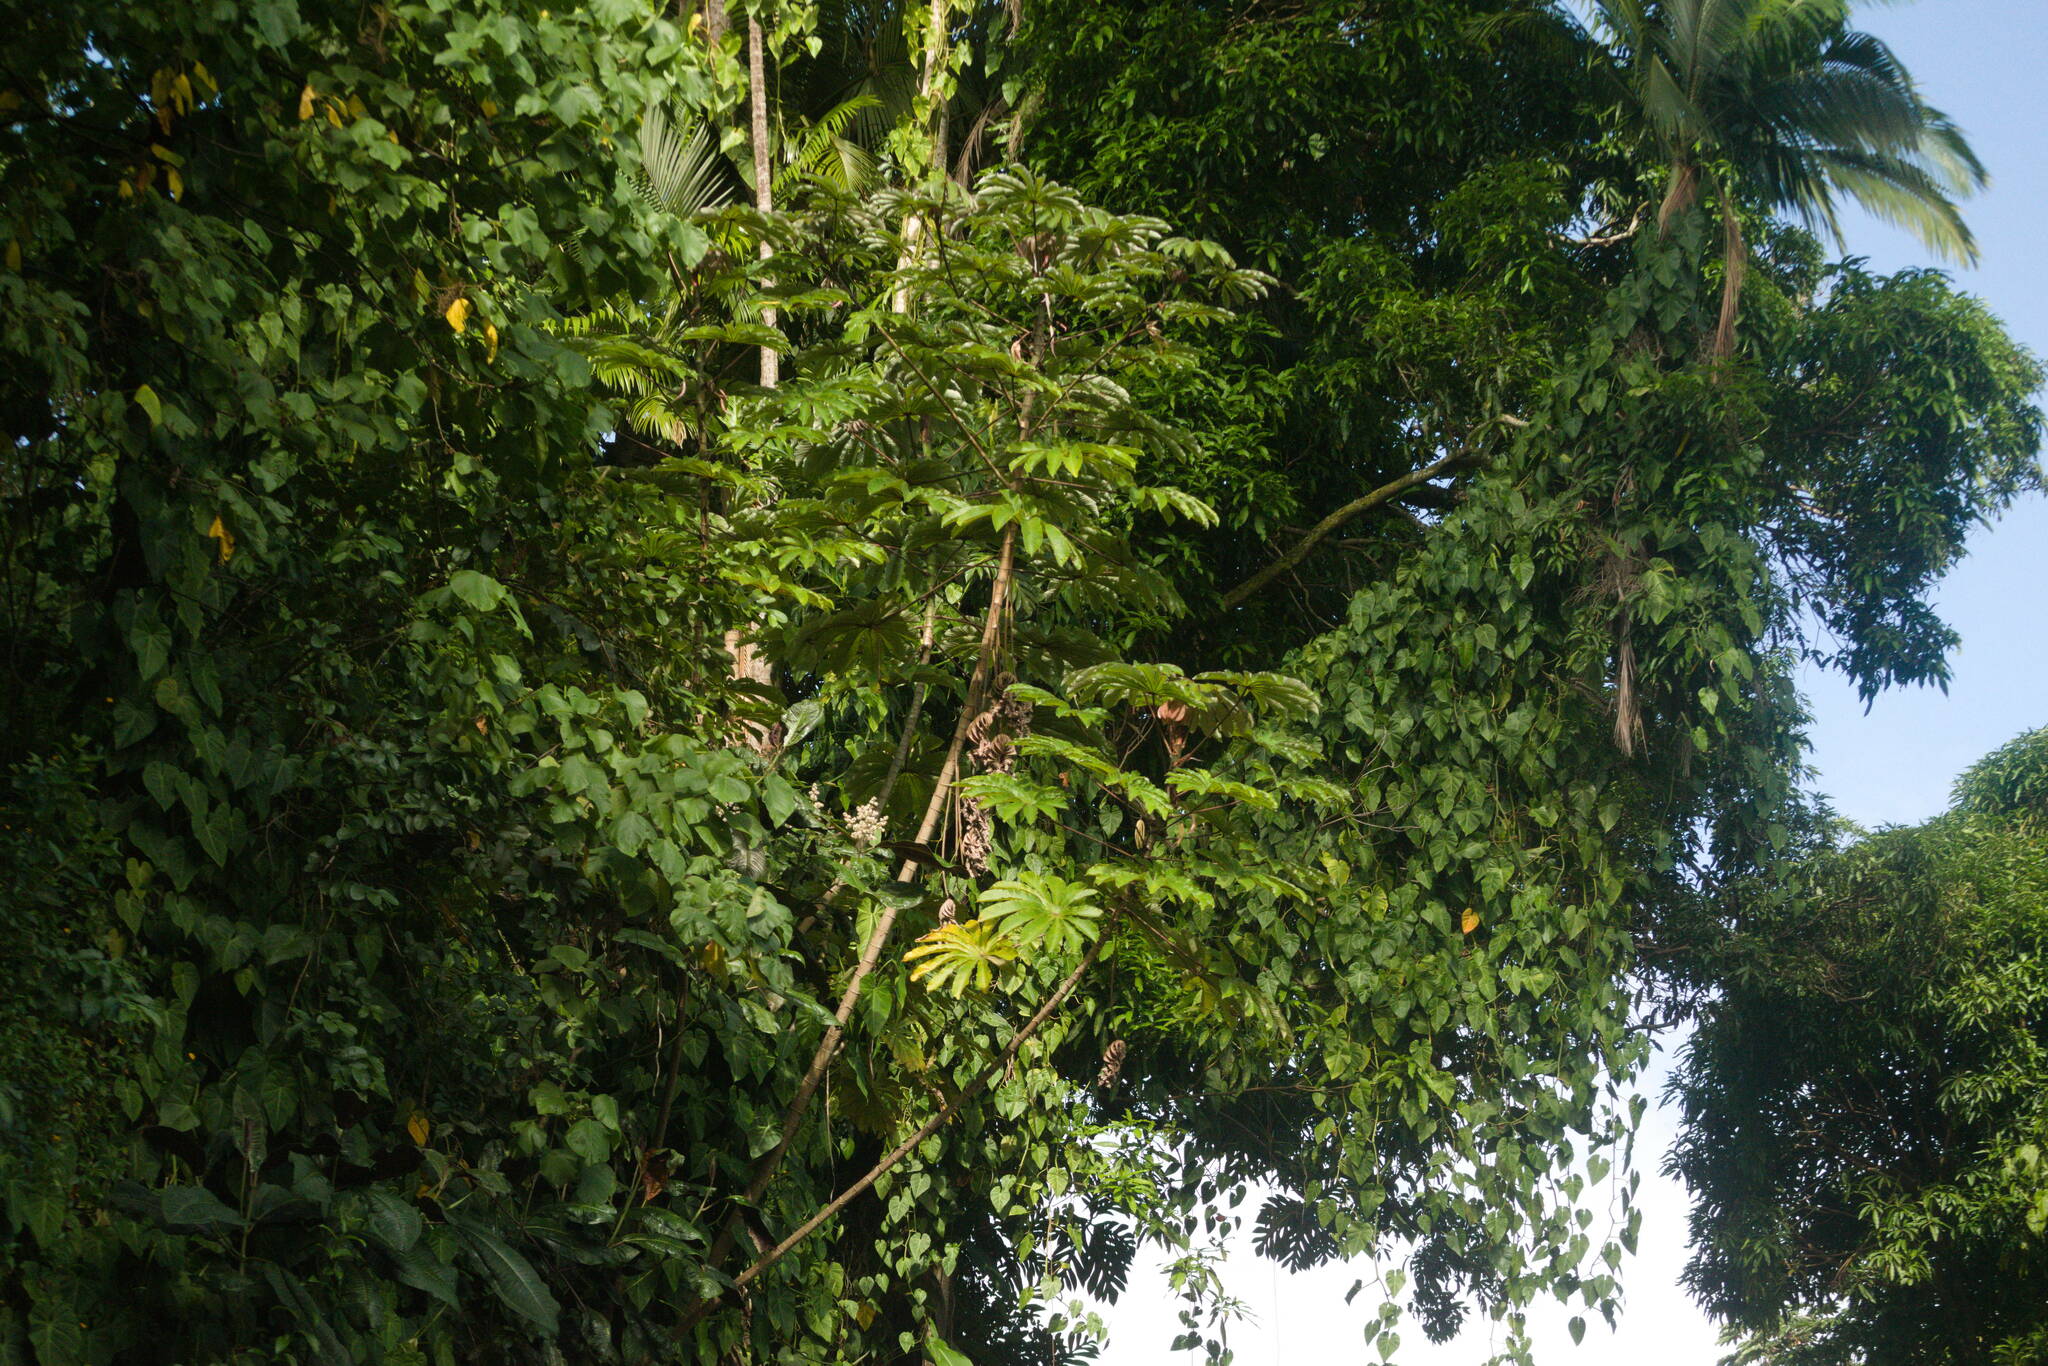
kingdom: Plantae
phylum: Tracheophyta
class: Magnoliopsida
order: Apiales
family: Araliaceae
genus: Heptapleurum
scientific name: Heptapleurum actinophyllum
